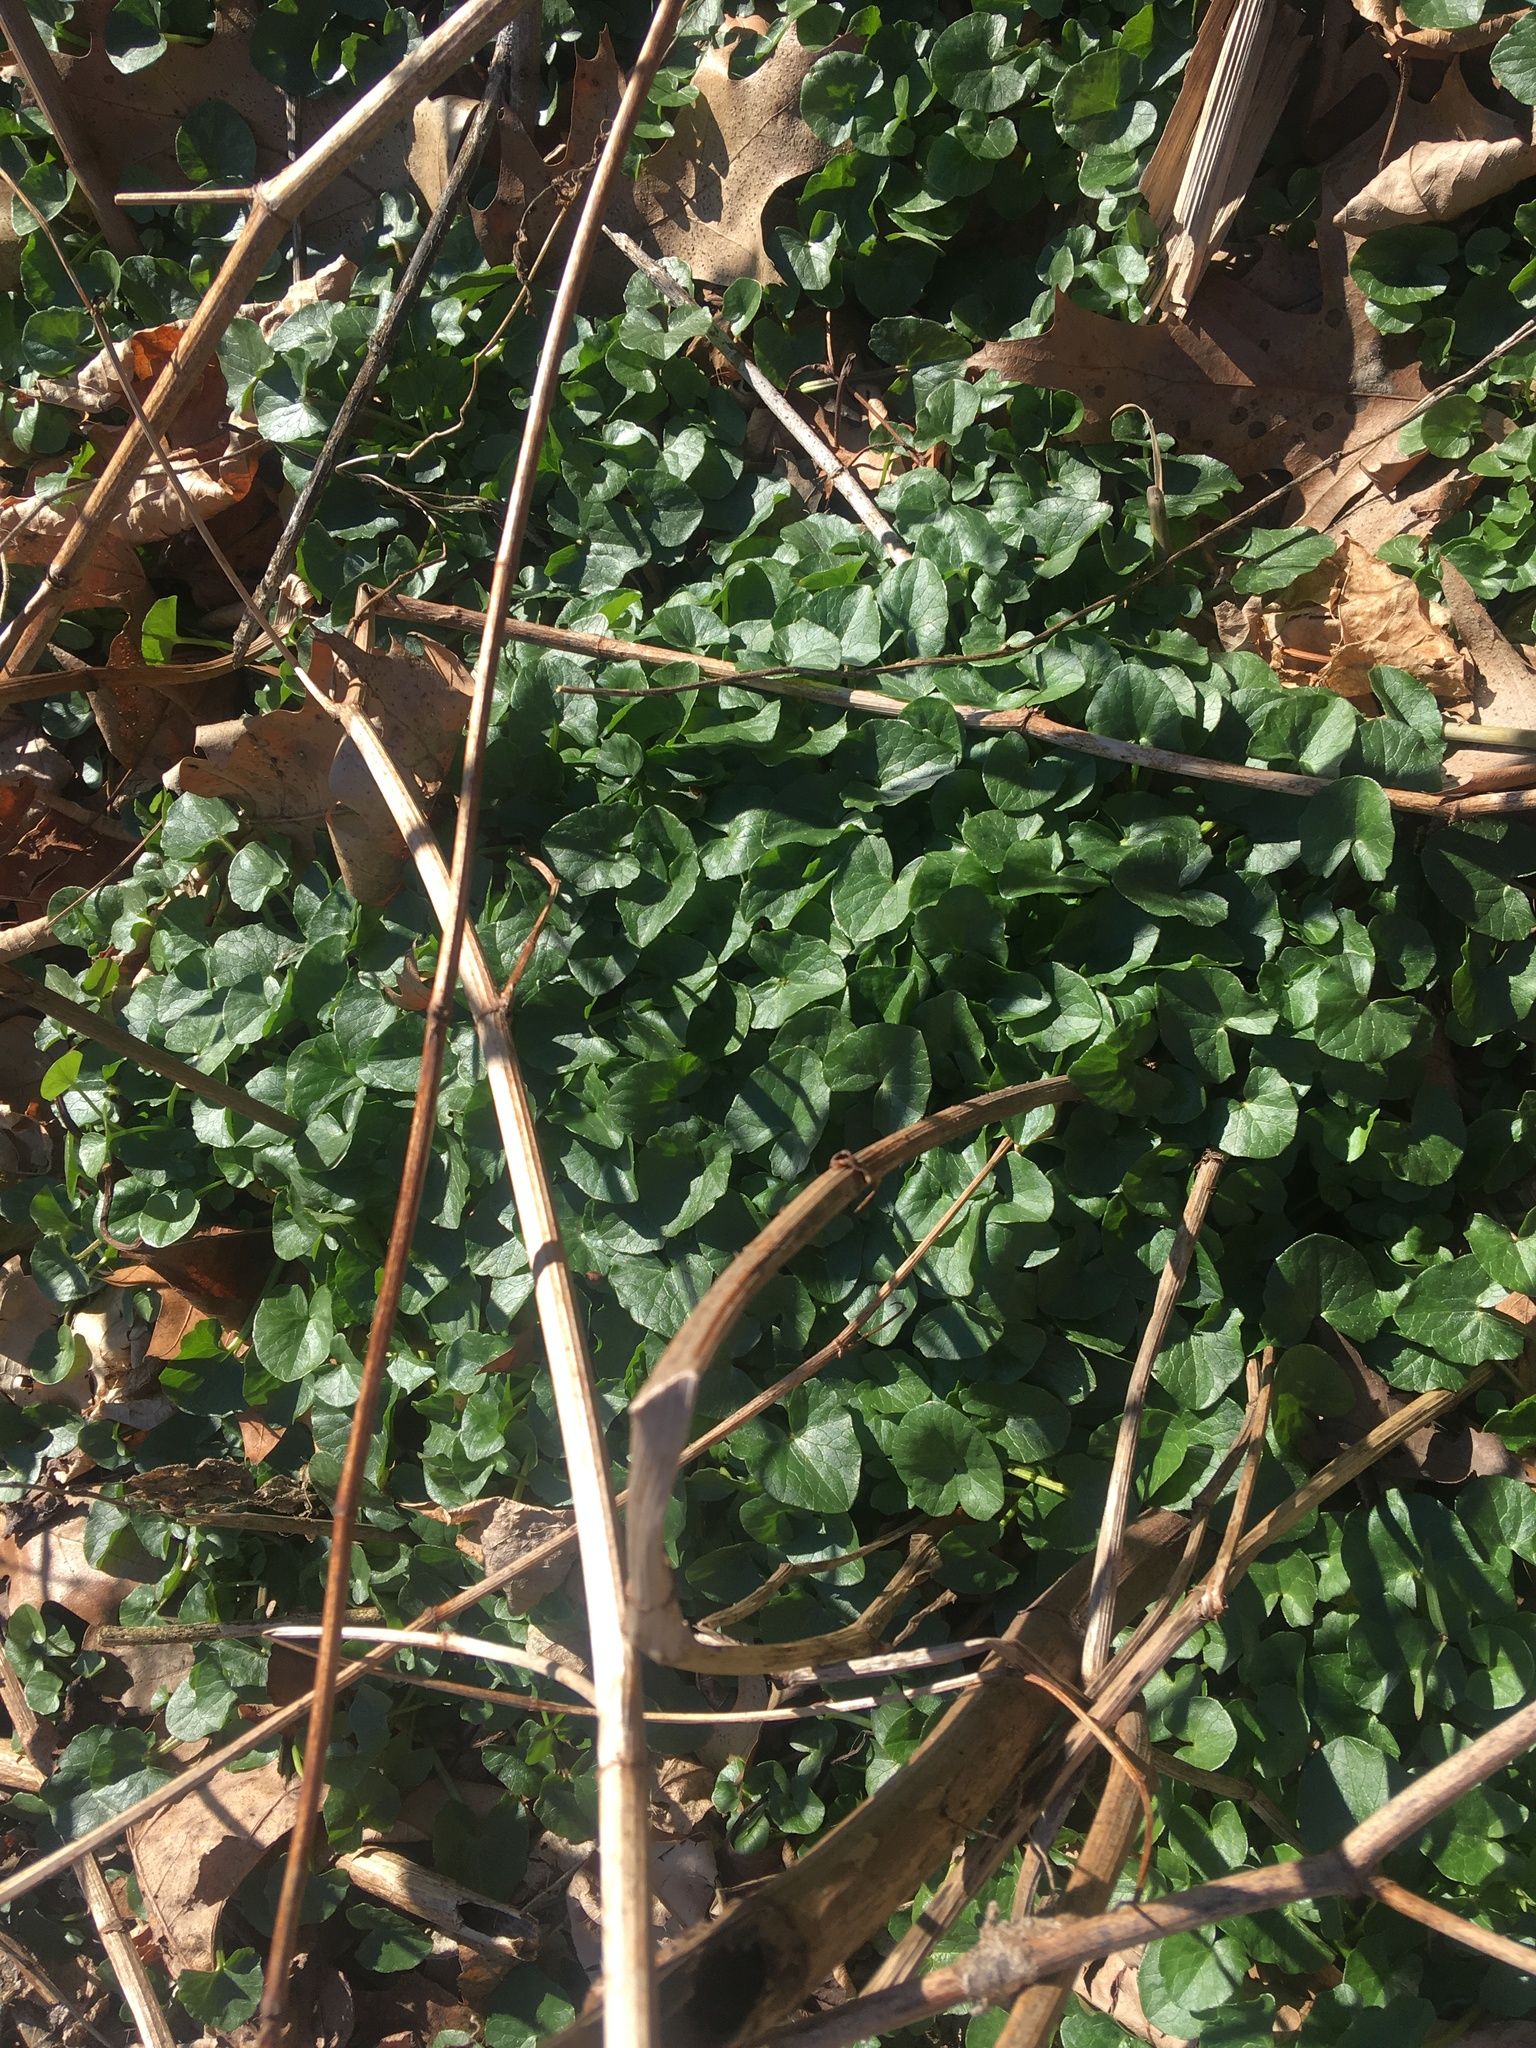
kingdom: Plantae
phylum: Tracheophyta
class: Magnoliopsida
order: Ranunculales
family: Ranunculaceae
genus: Ficaria
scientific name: Ficaria verna
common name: Lesser celandine
